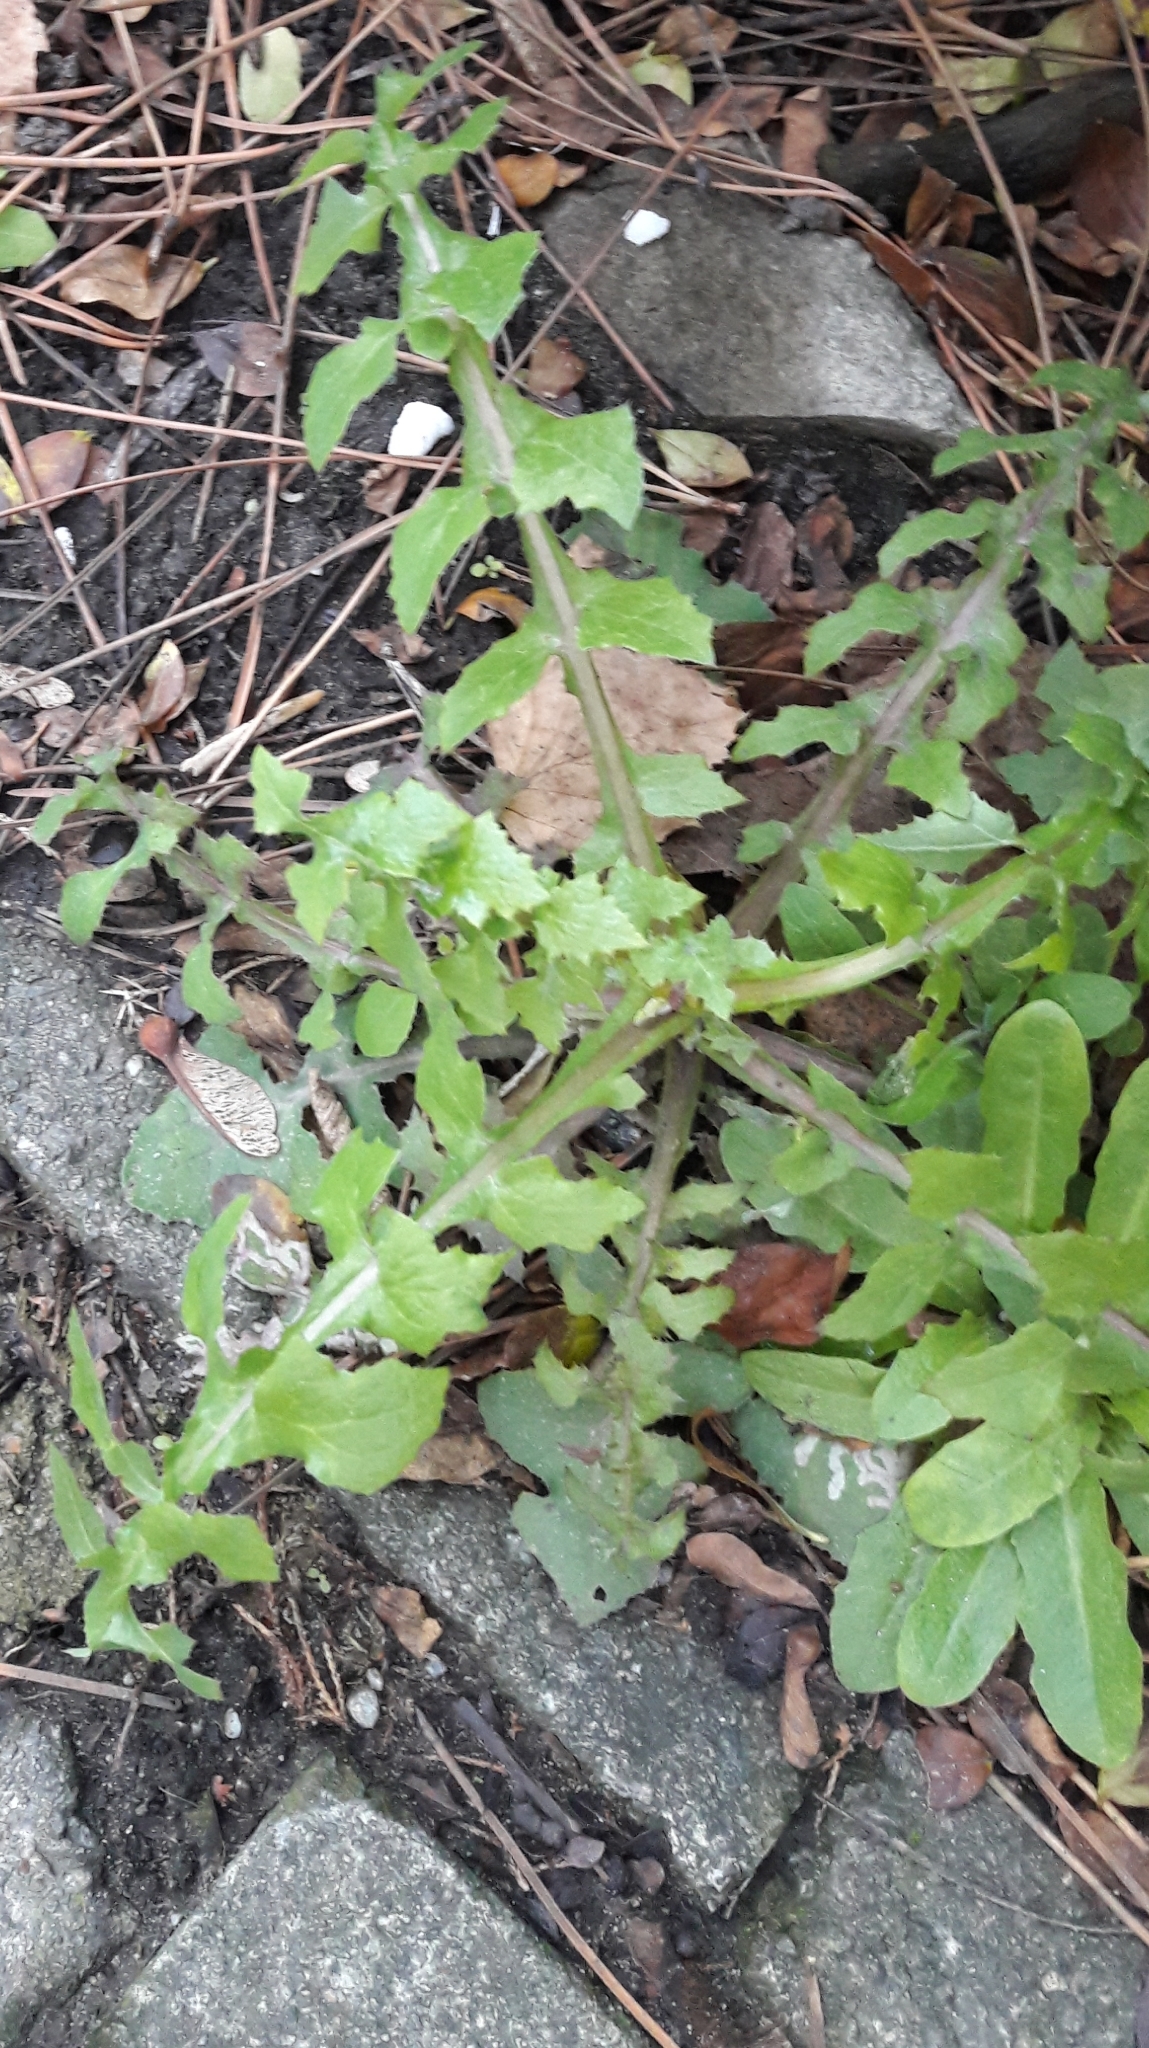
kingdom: Plantae
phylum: Tracheophyta
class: Magnoliopsida
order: Asterales
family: Asteraceae
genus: Sonchus
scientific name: Sonchus oleraceus
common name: Common sowthistle
